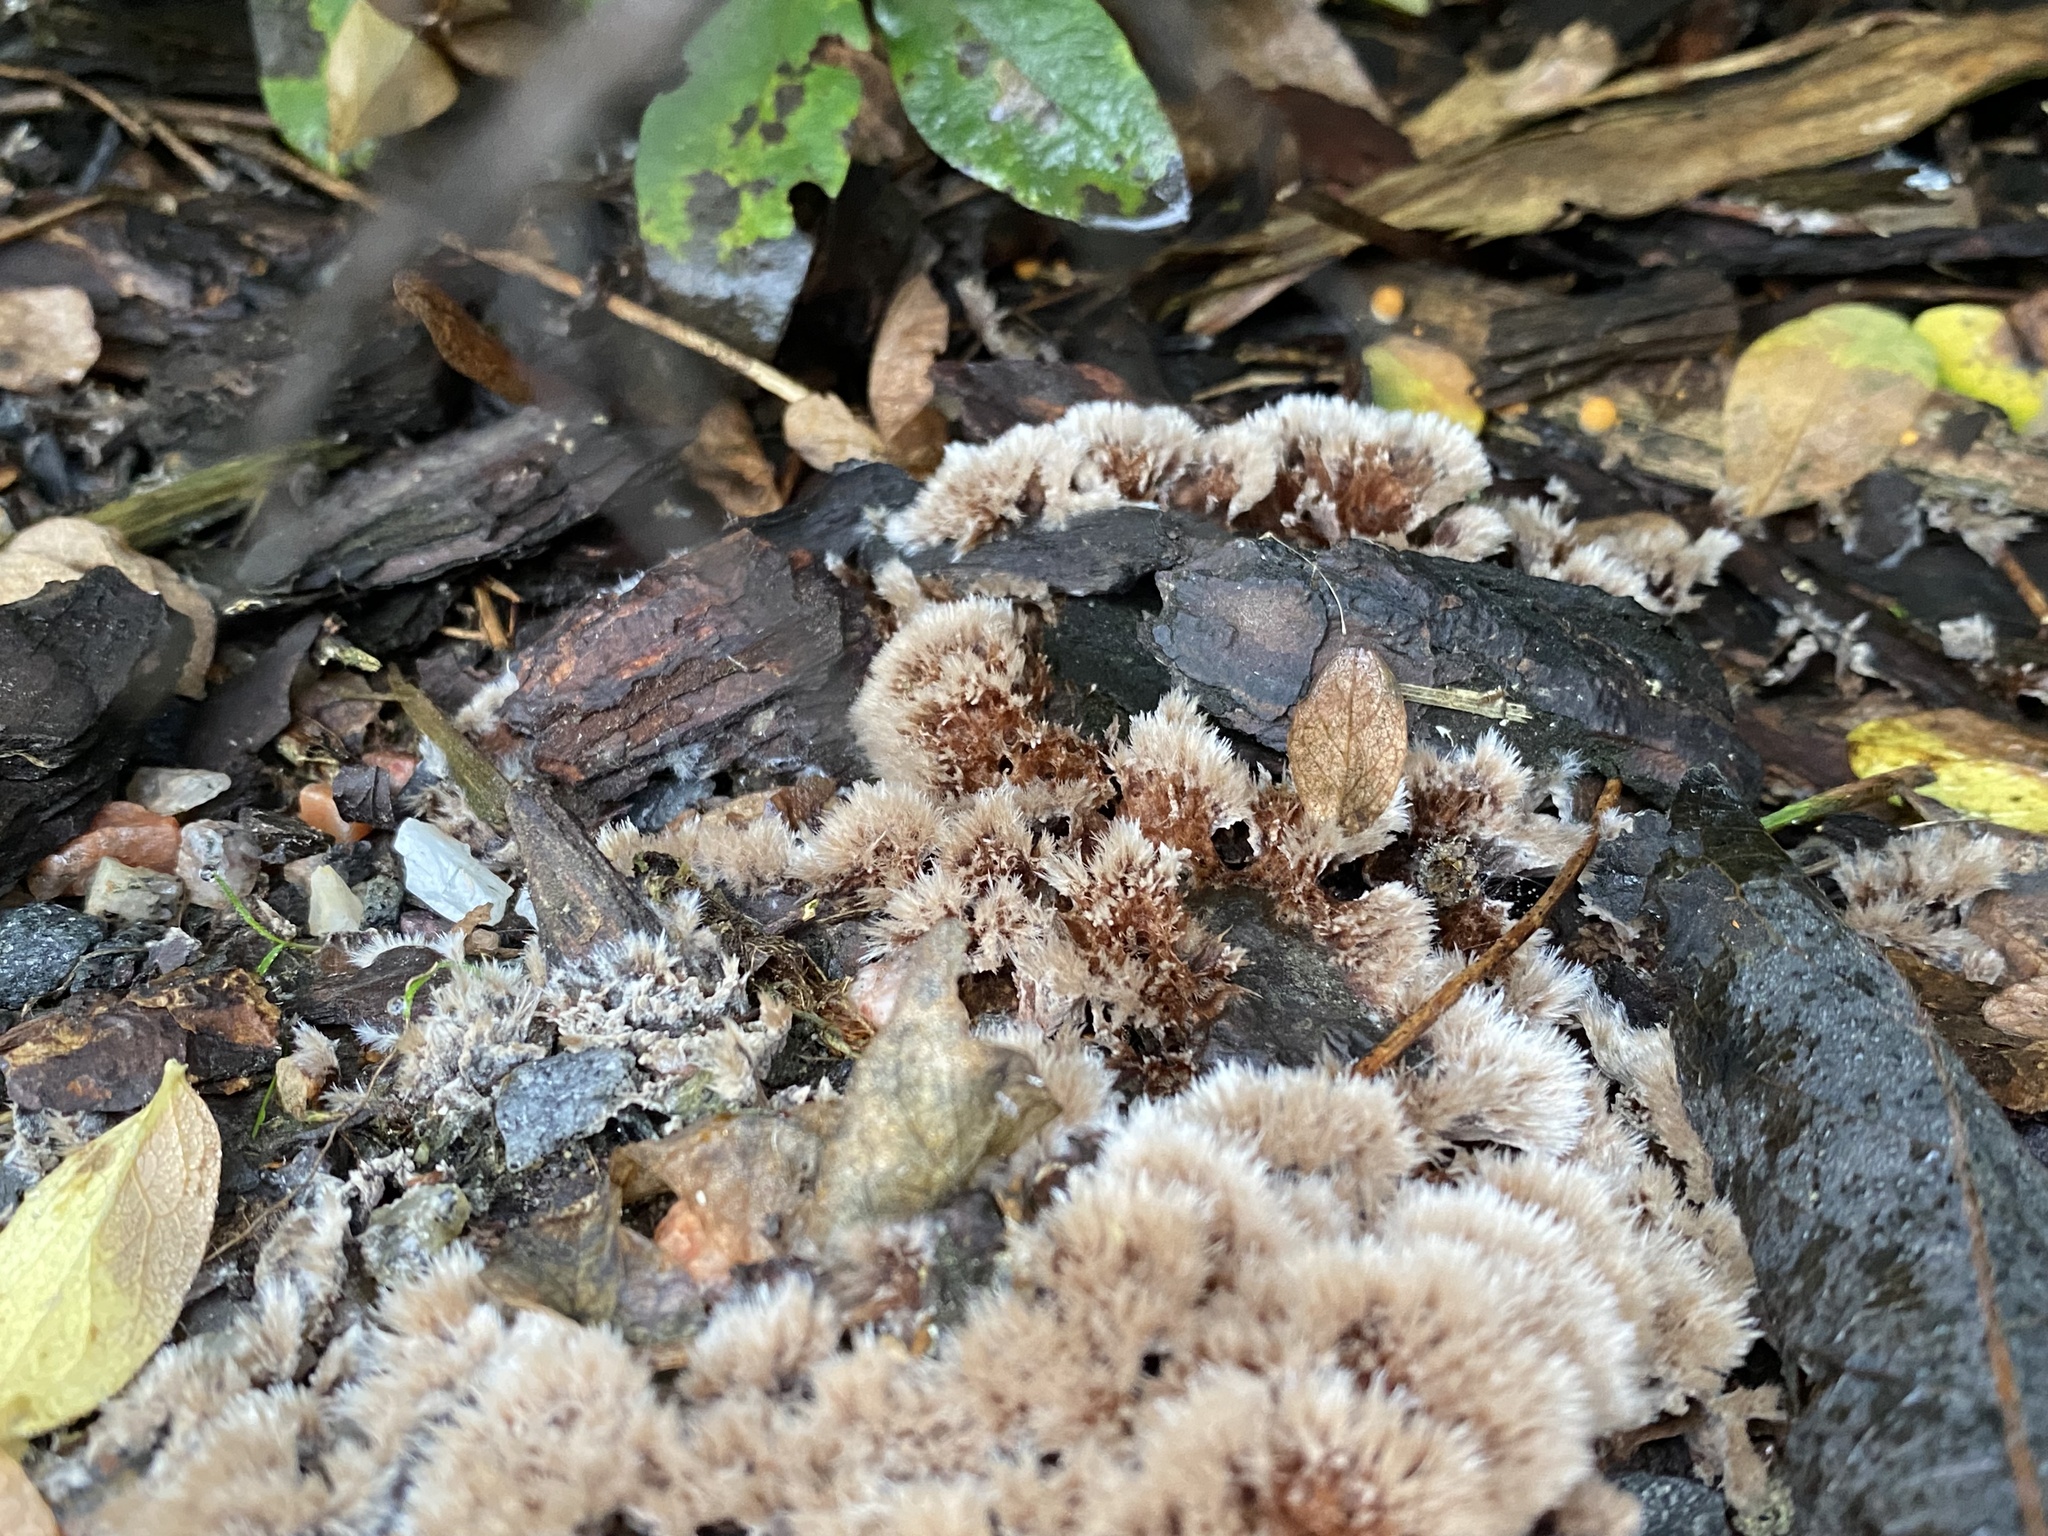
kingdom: Fungi
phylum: Basidiomycota
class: Agaricomycetes
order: Thelephorales
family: Thelephoraceae
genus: Thelephora
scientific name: Thelephora terrestris
